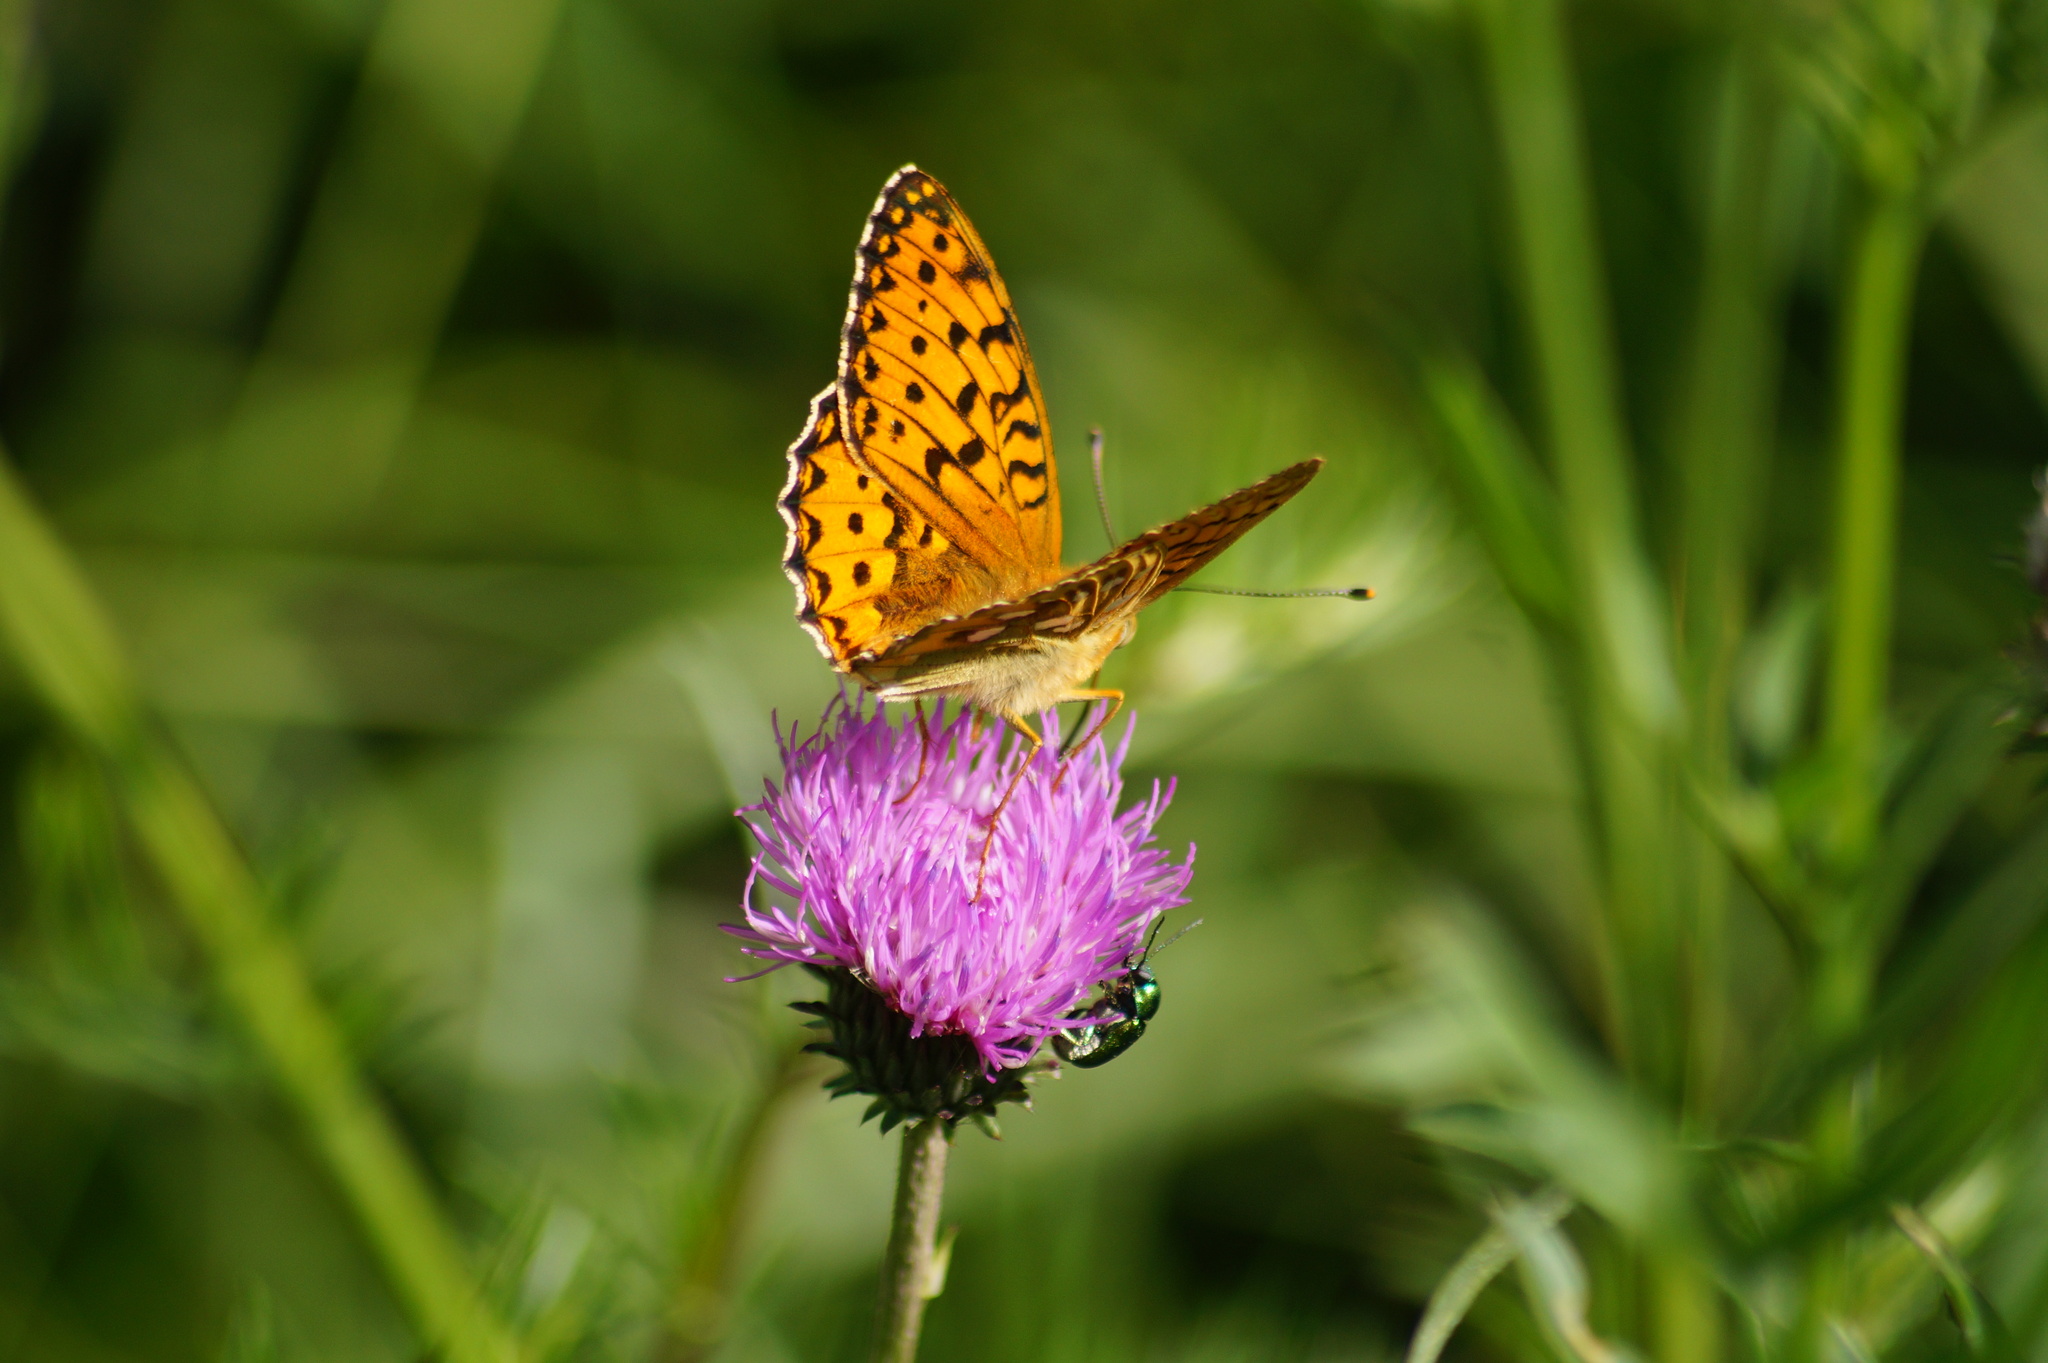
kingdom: Animalia
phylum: Arthropoda
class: Insecta
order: Lepidoptera
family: Nymphalidae
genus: Speyeria
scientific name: Speyeria aglaja
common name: Dark green fritillary
